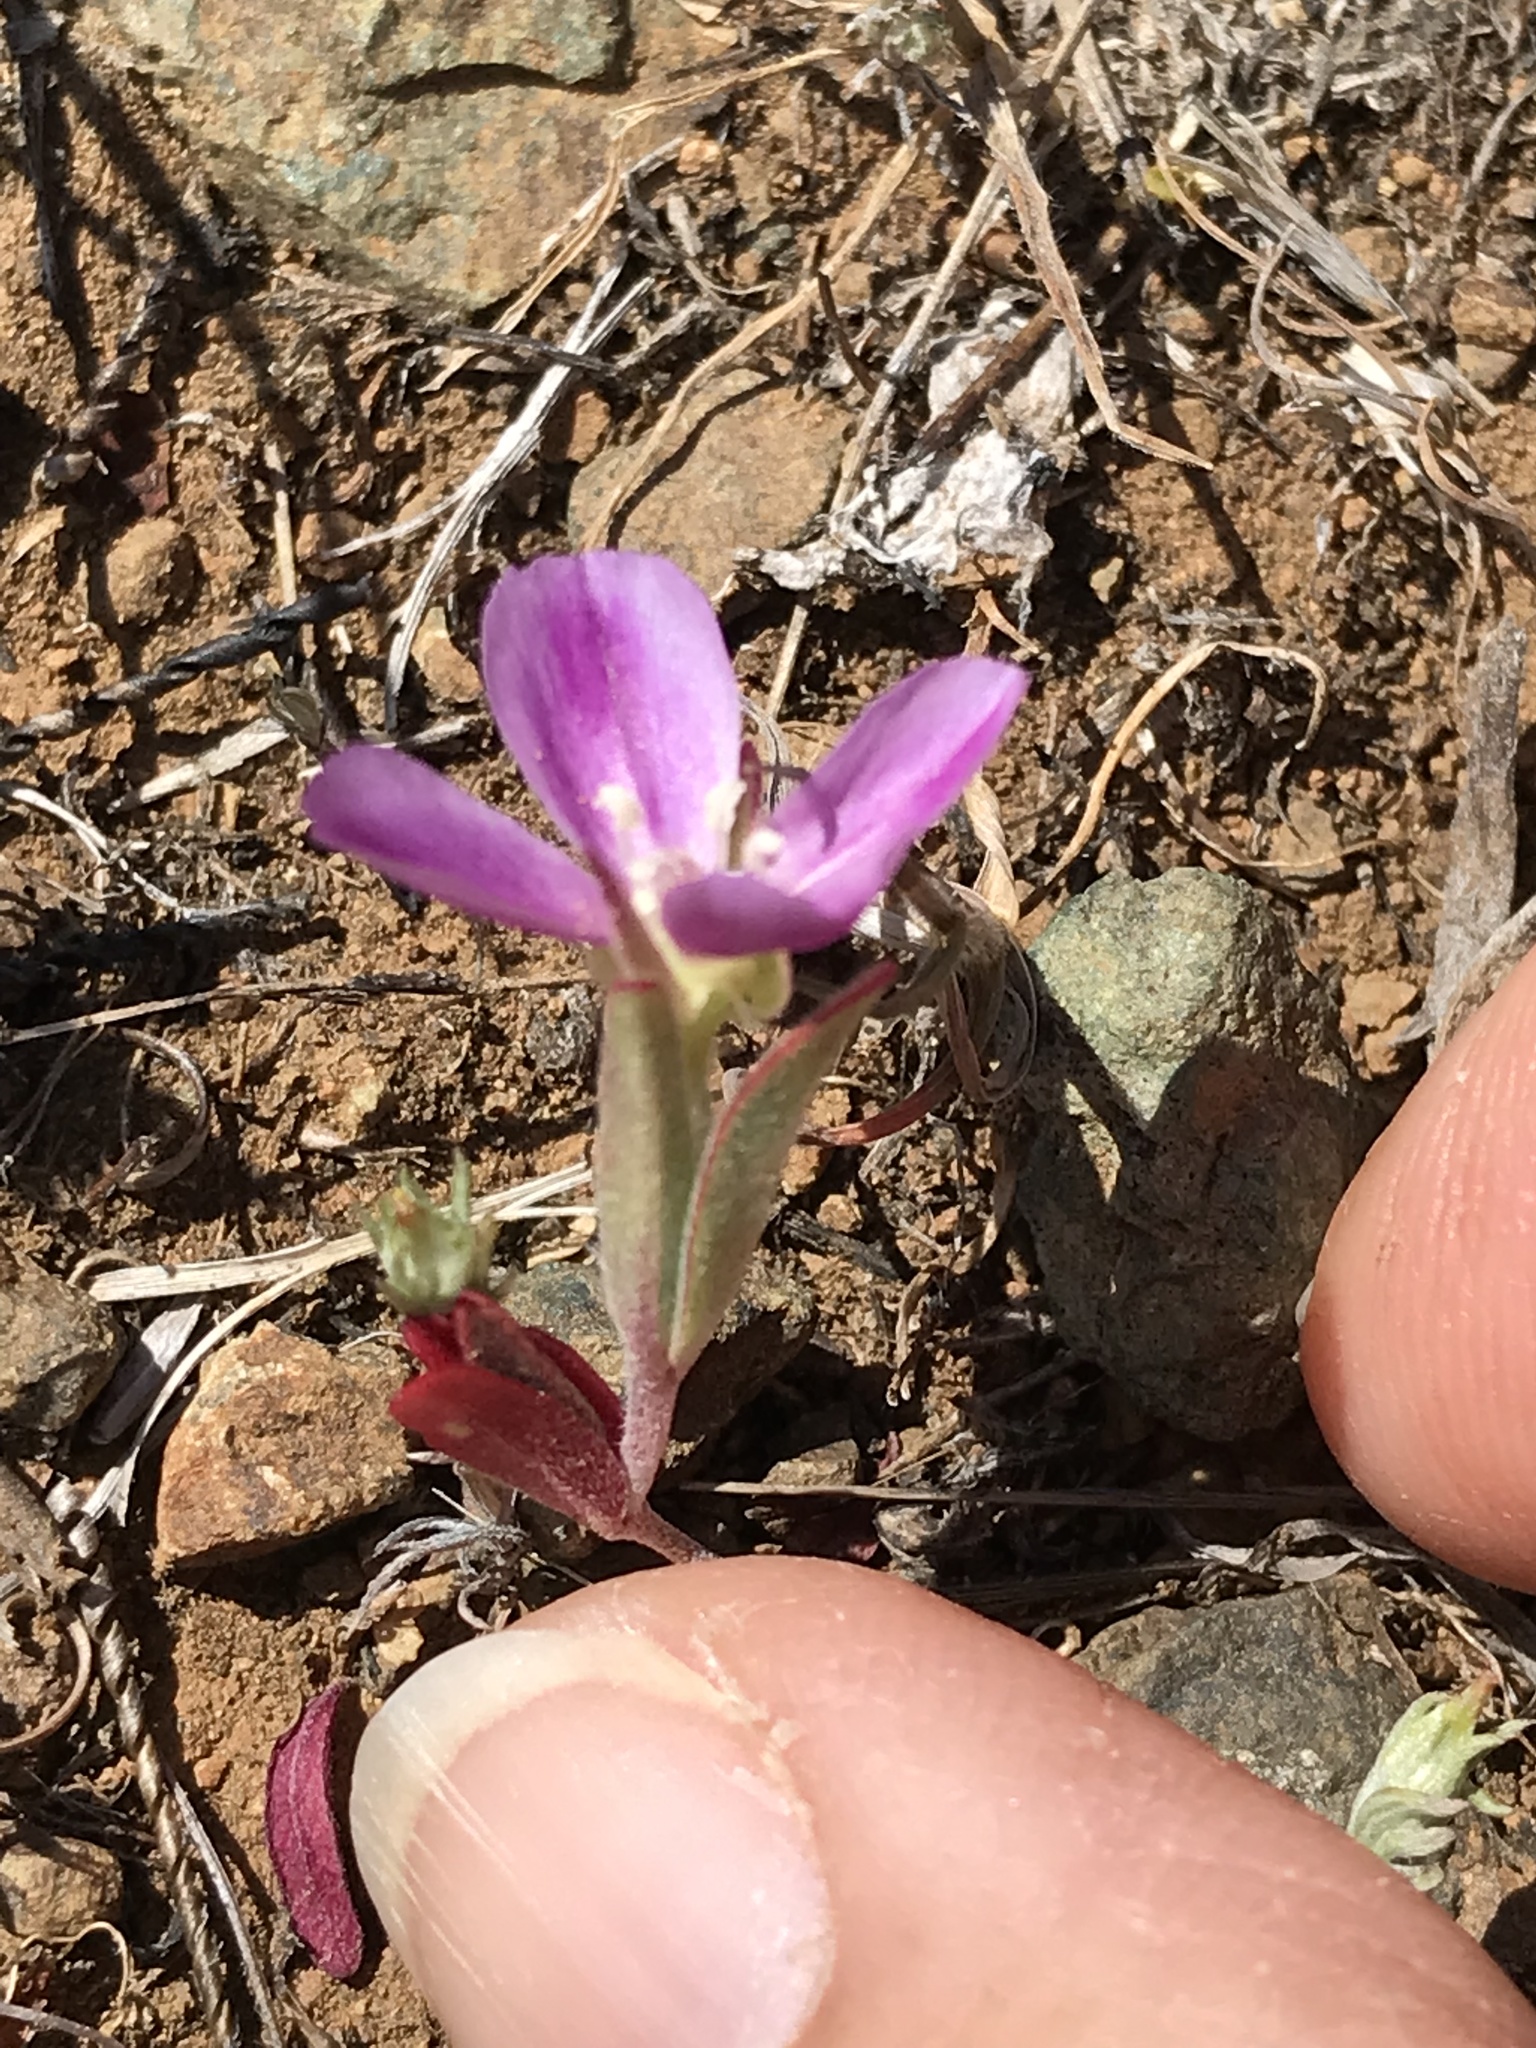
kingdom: Plantae
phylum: Tracheophyta
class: Magnoliopsida
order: Myrtales
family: Onagraceae
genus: Clarkia
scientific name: Clarkia purpurea
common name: Purple clarkia
